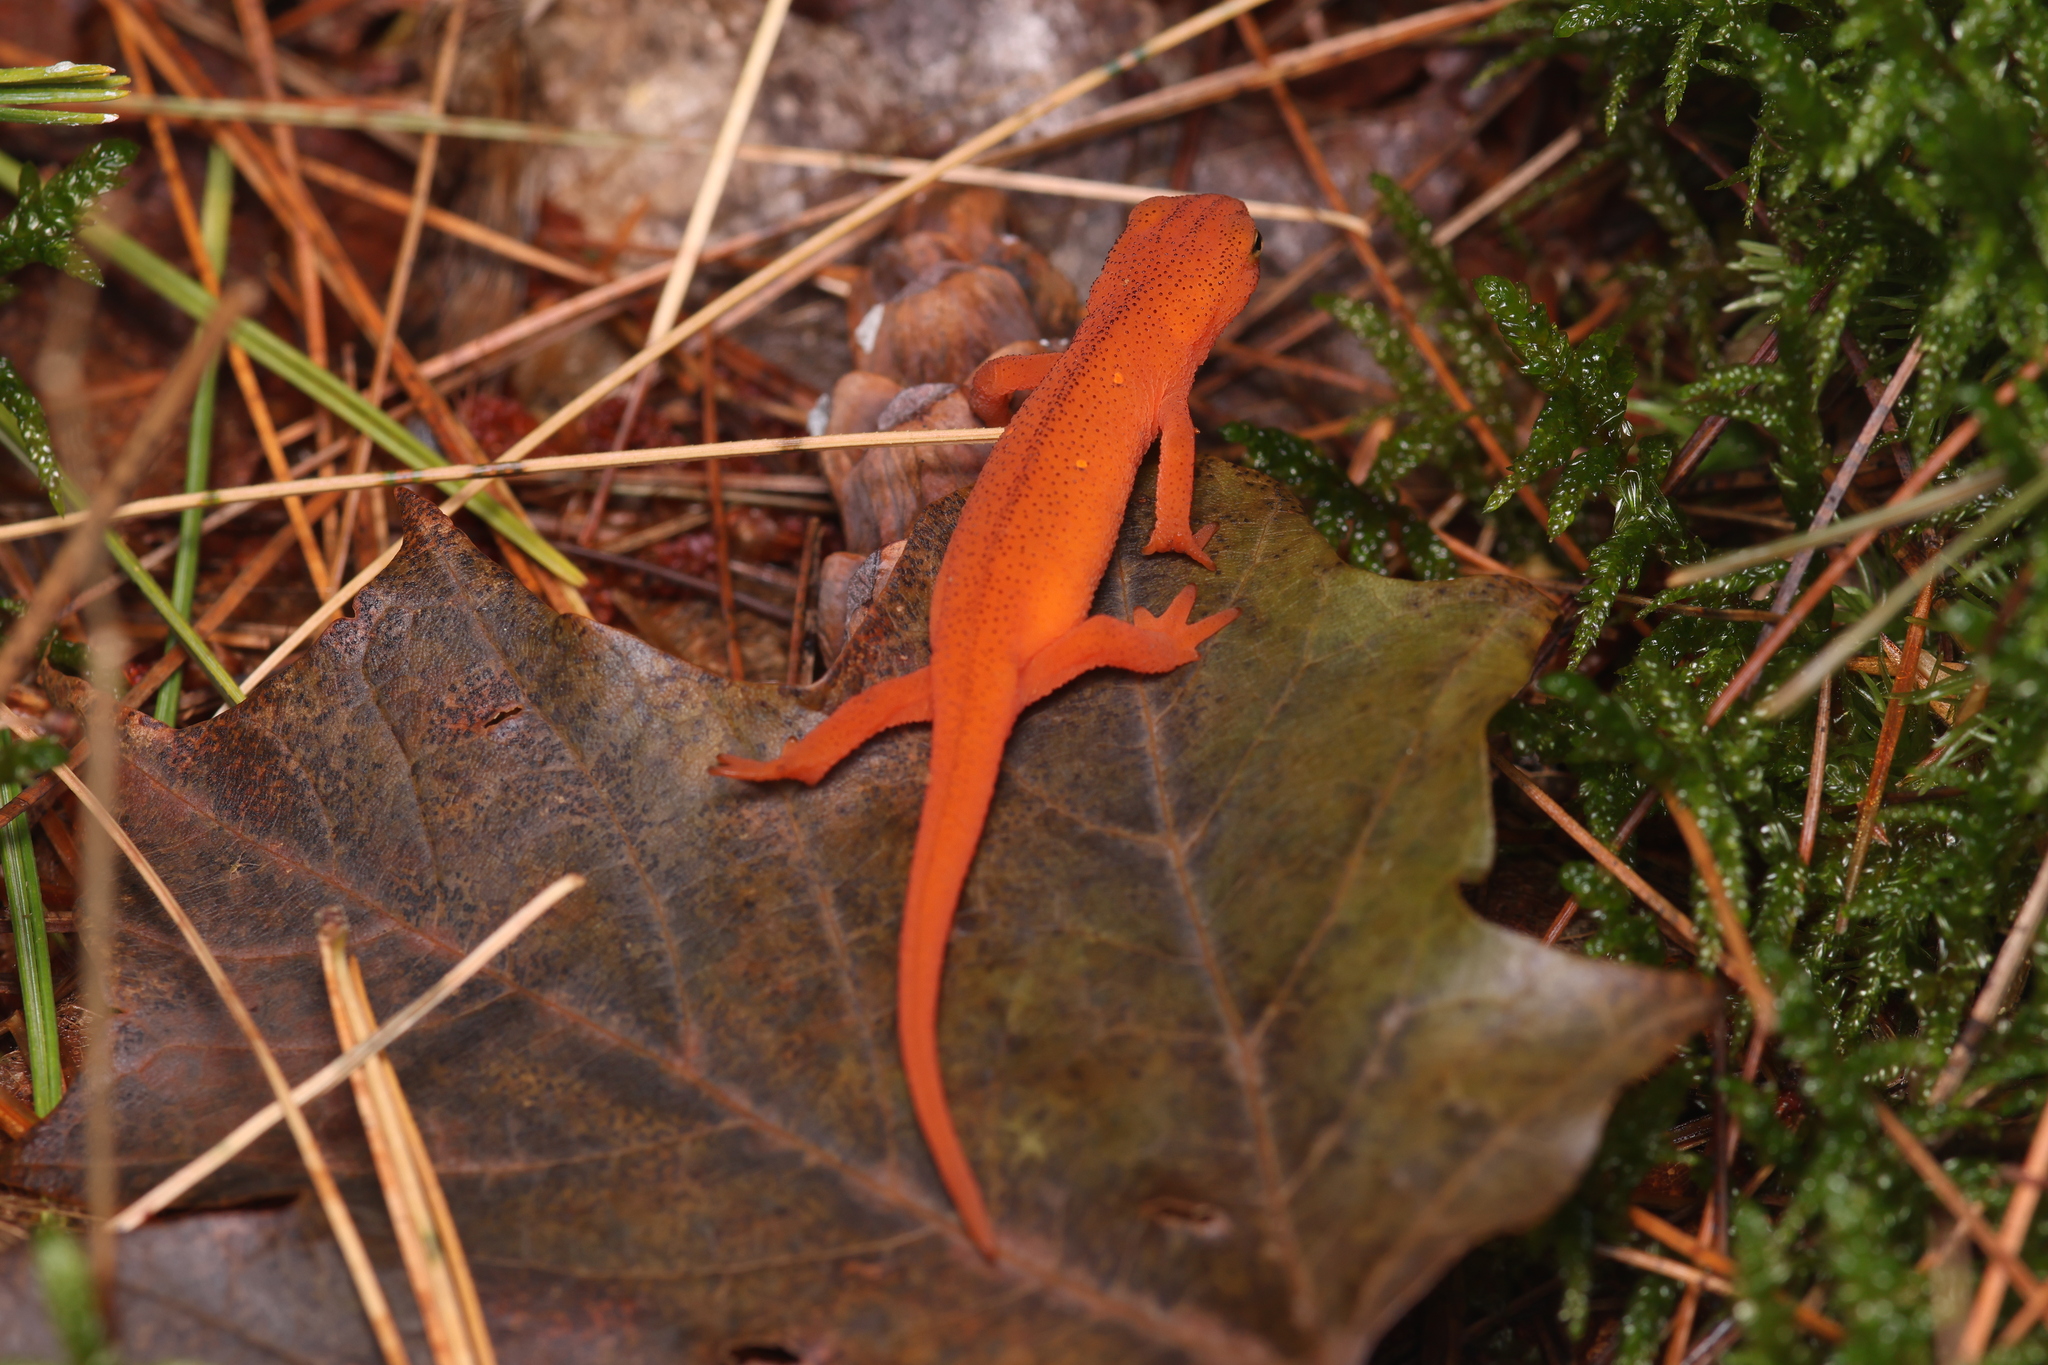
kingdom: Animalia
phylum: Chordata
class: Amphibia
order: Caudata
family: Salamandridae
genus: Notophthalmus
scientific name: Notophthalmus viridescens
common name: Eastern newt
